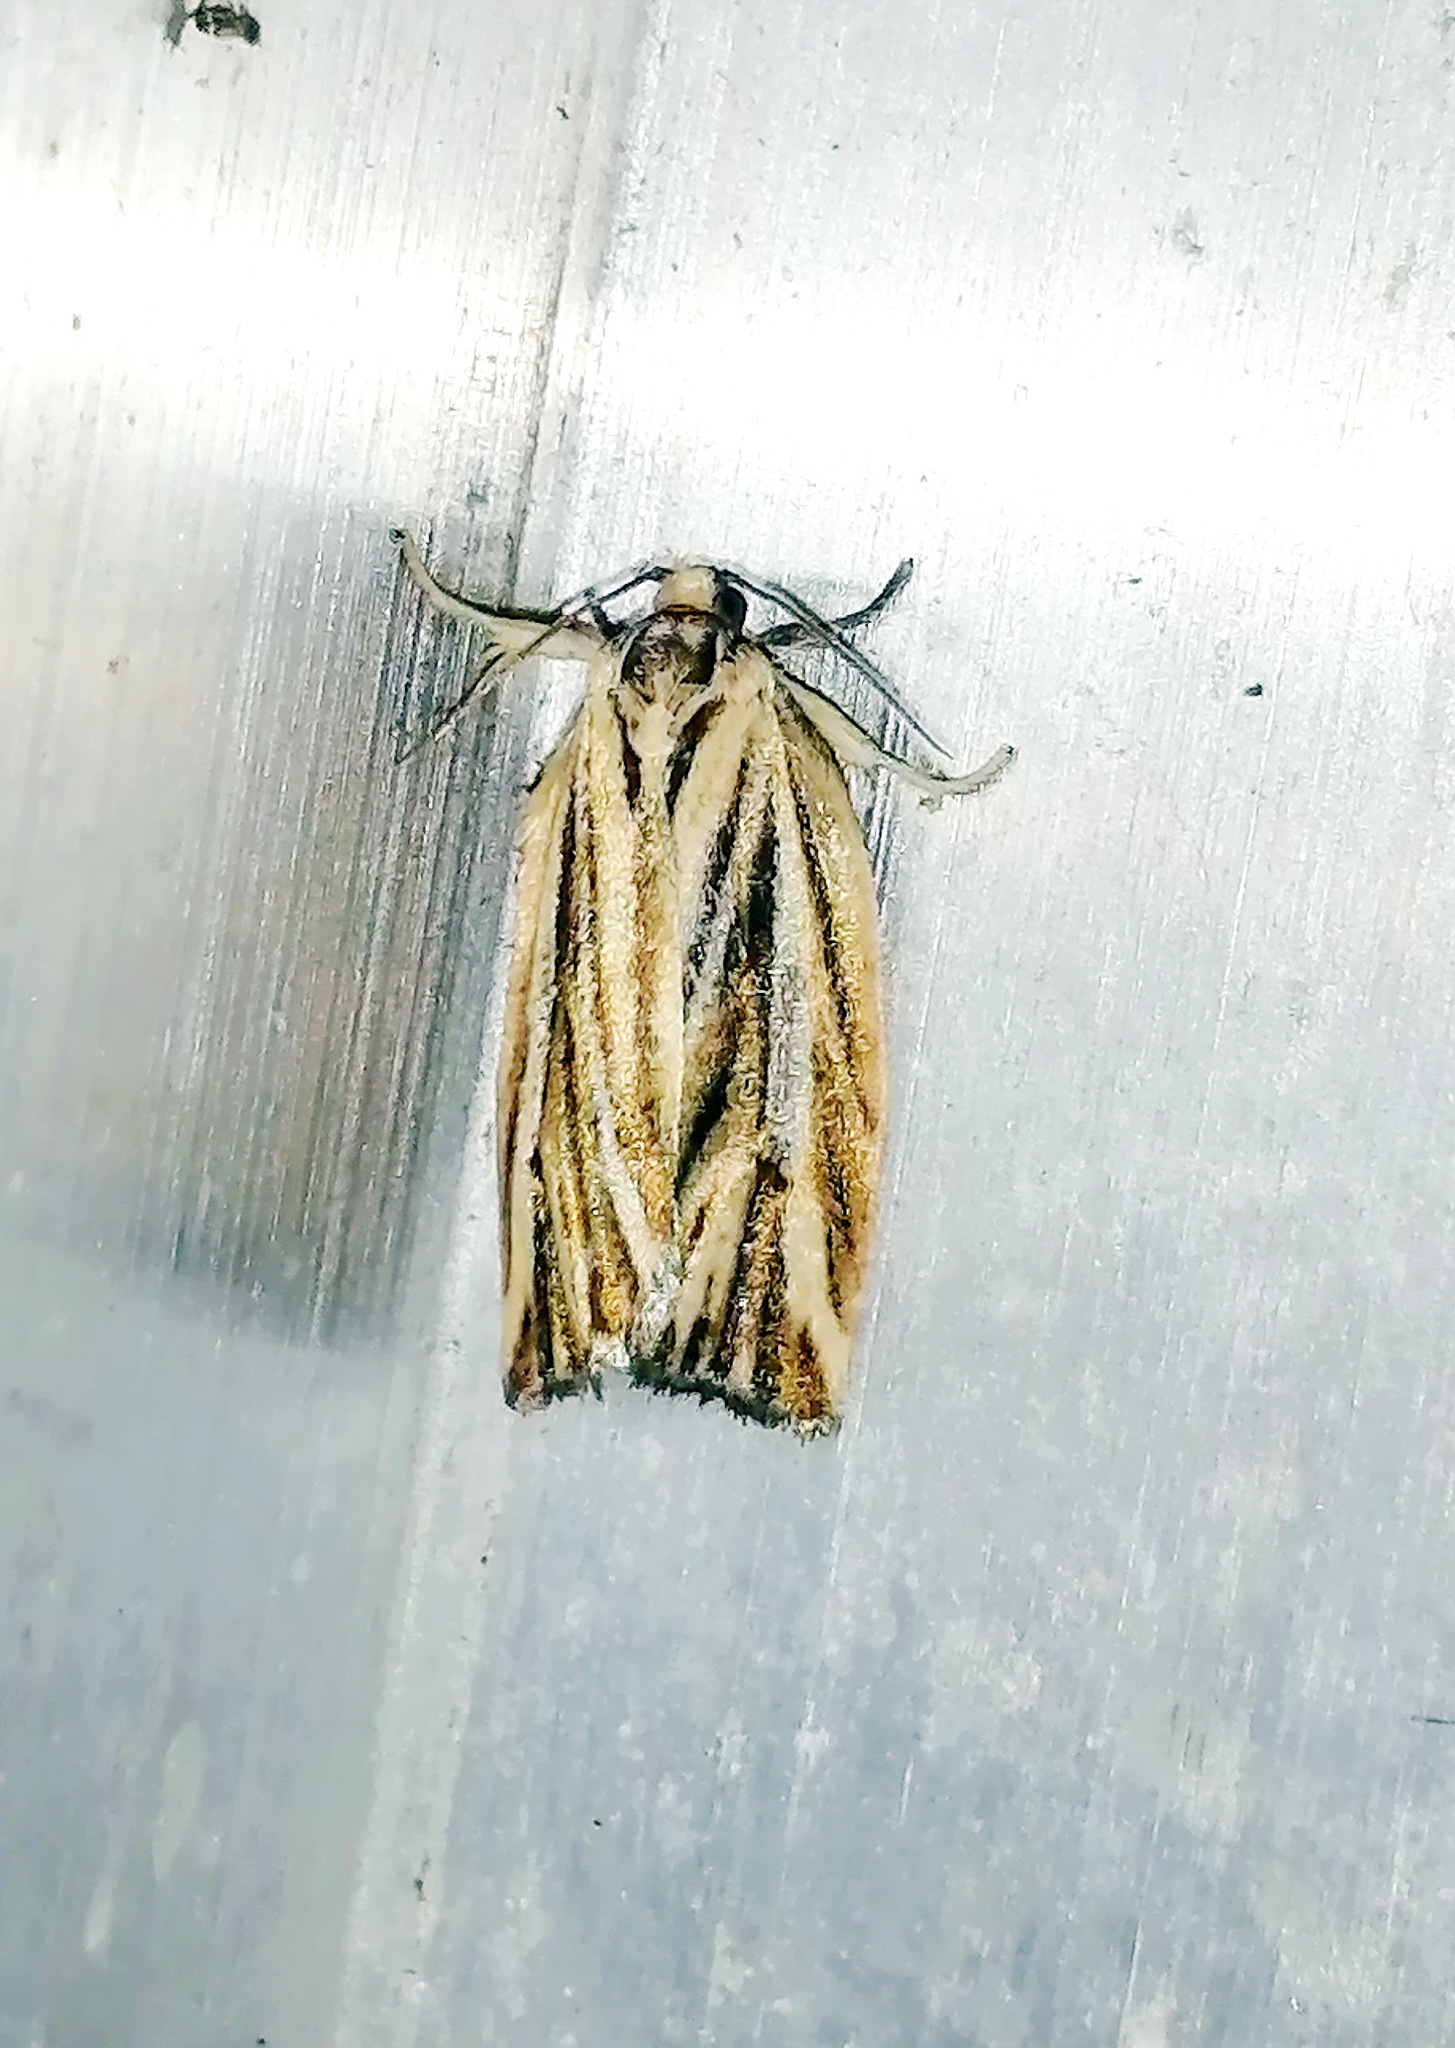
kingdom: Animalia
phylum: Arthropoda
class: Insecta
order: Lepidoptera
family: Tortricidae
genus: Archips
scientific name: Archips strianus
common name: Striated tortrix moth
